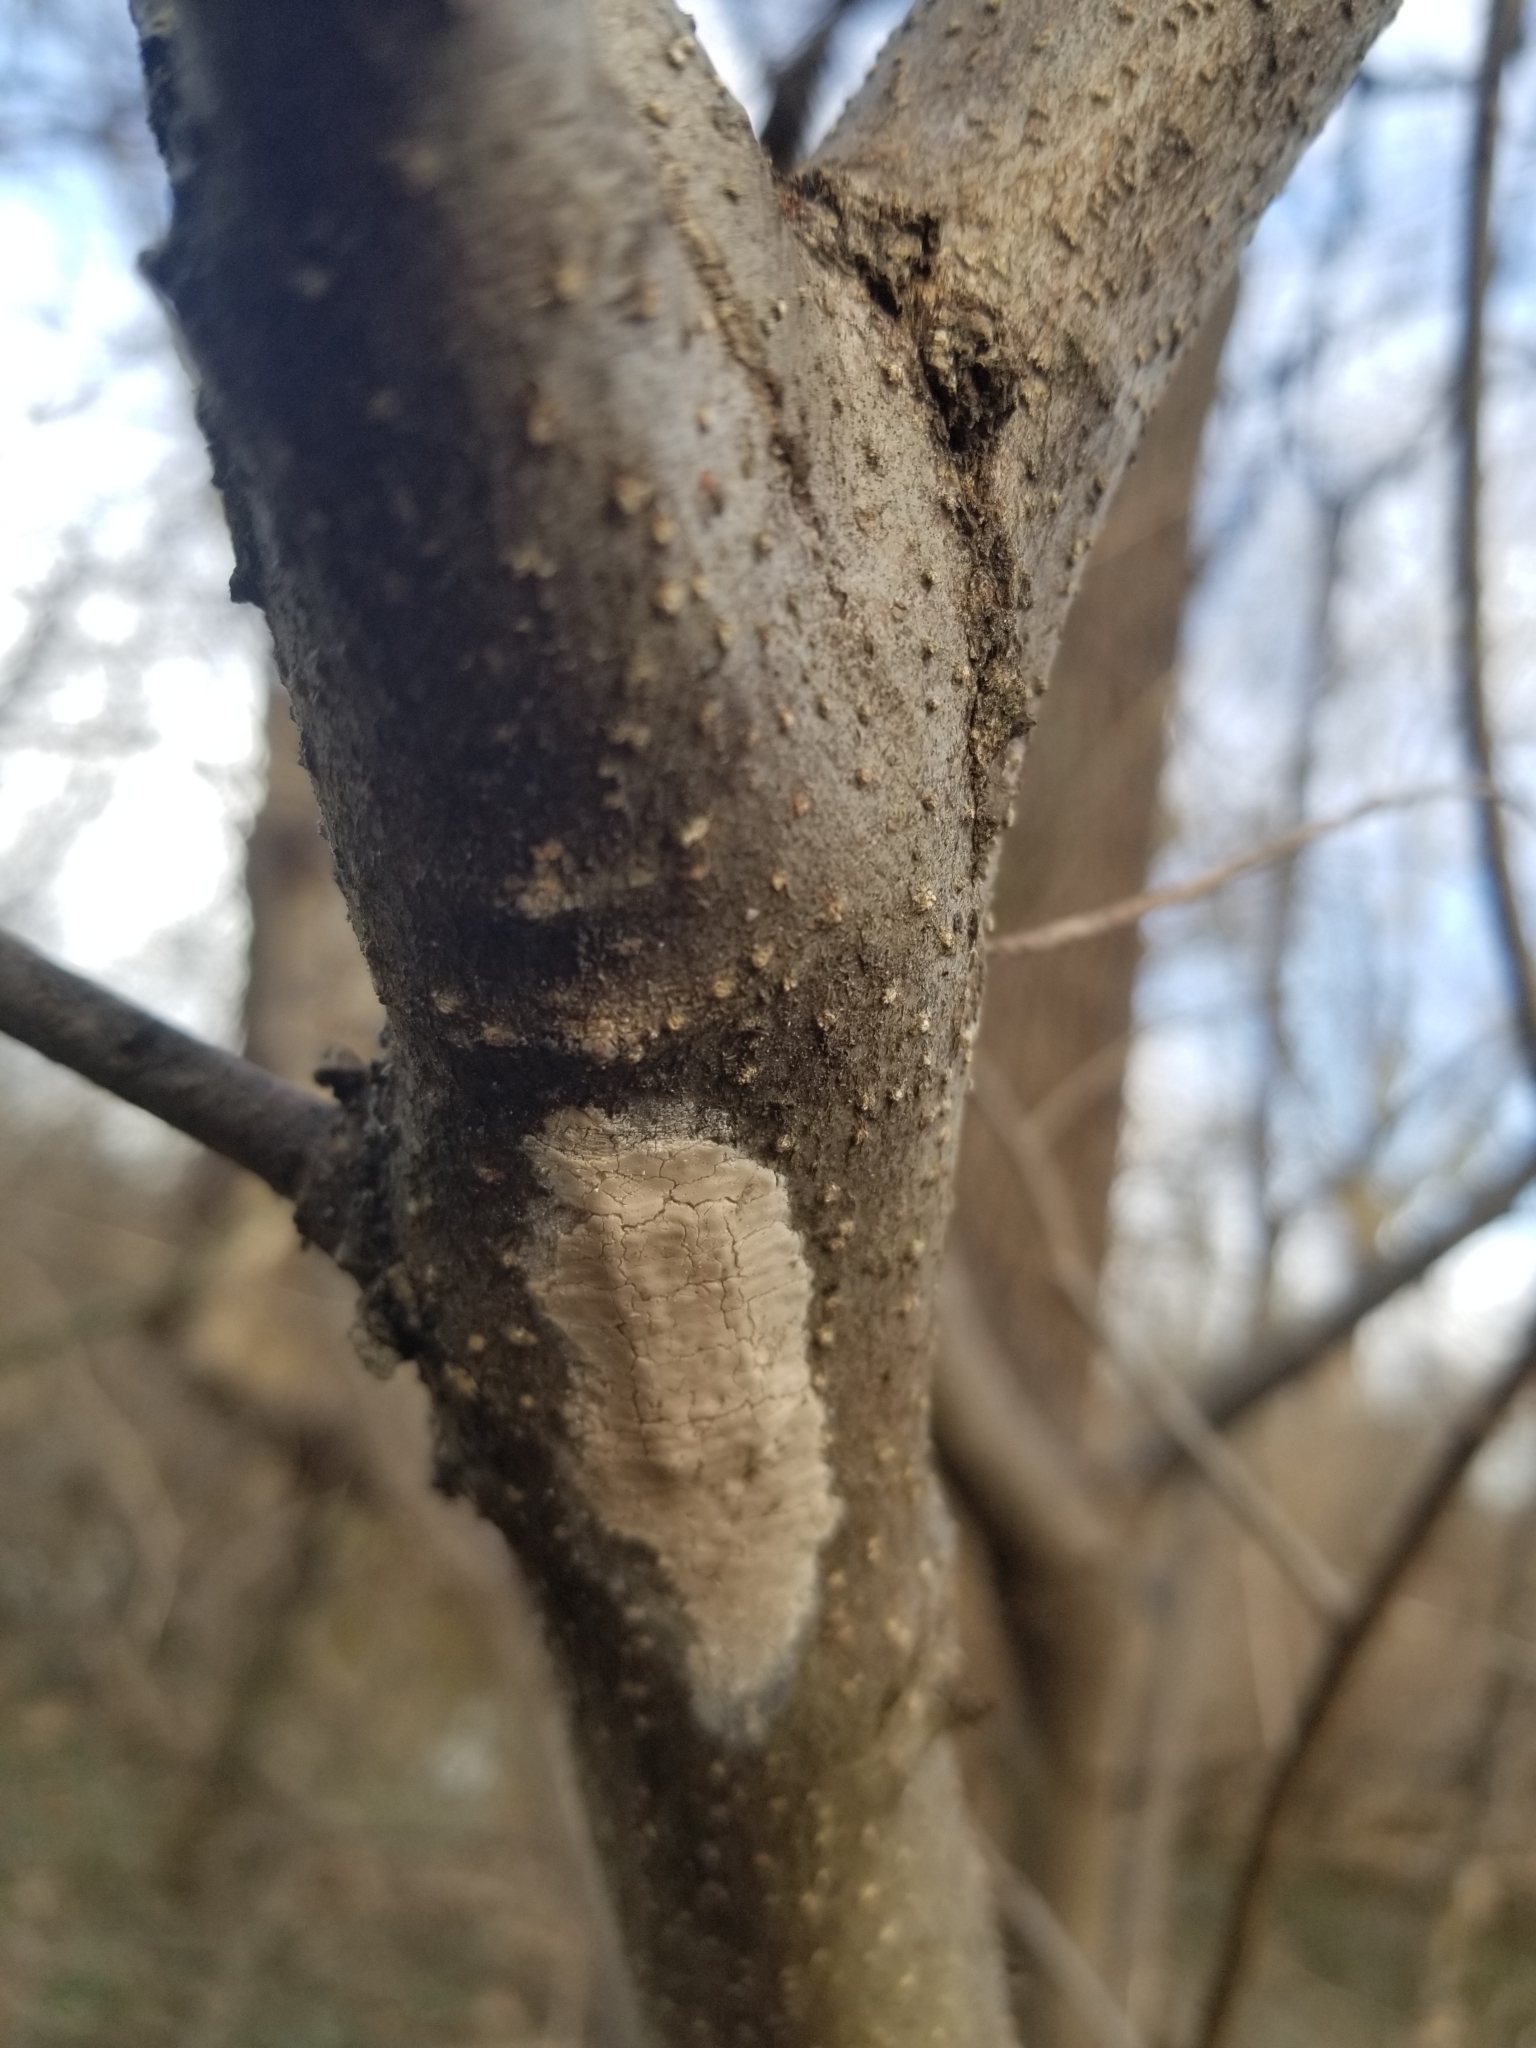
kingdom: Animalia
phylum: Arthropoda
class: Insecta
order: Hemiptera
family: Fulgoridae
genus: Lycorma
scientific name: Lycorma delicatula
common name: Spotted lanternfly
